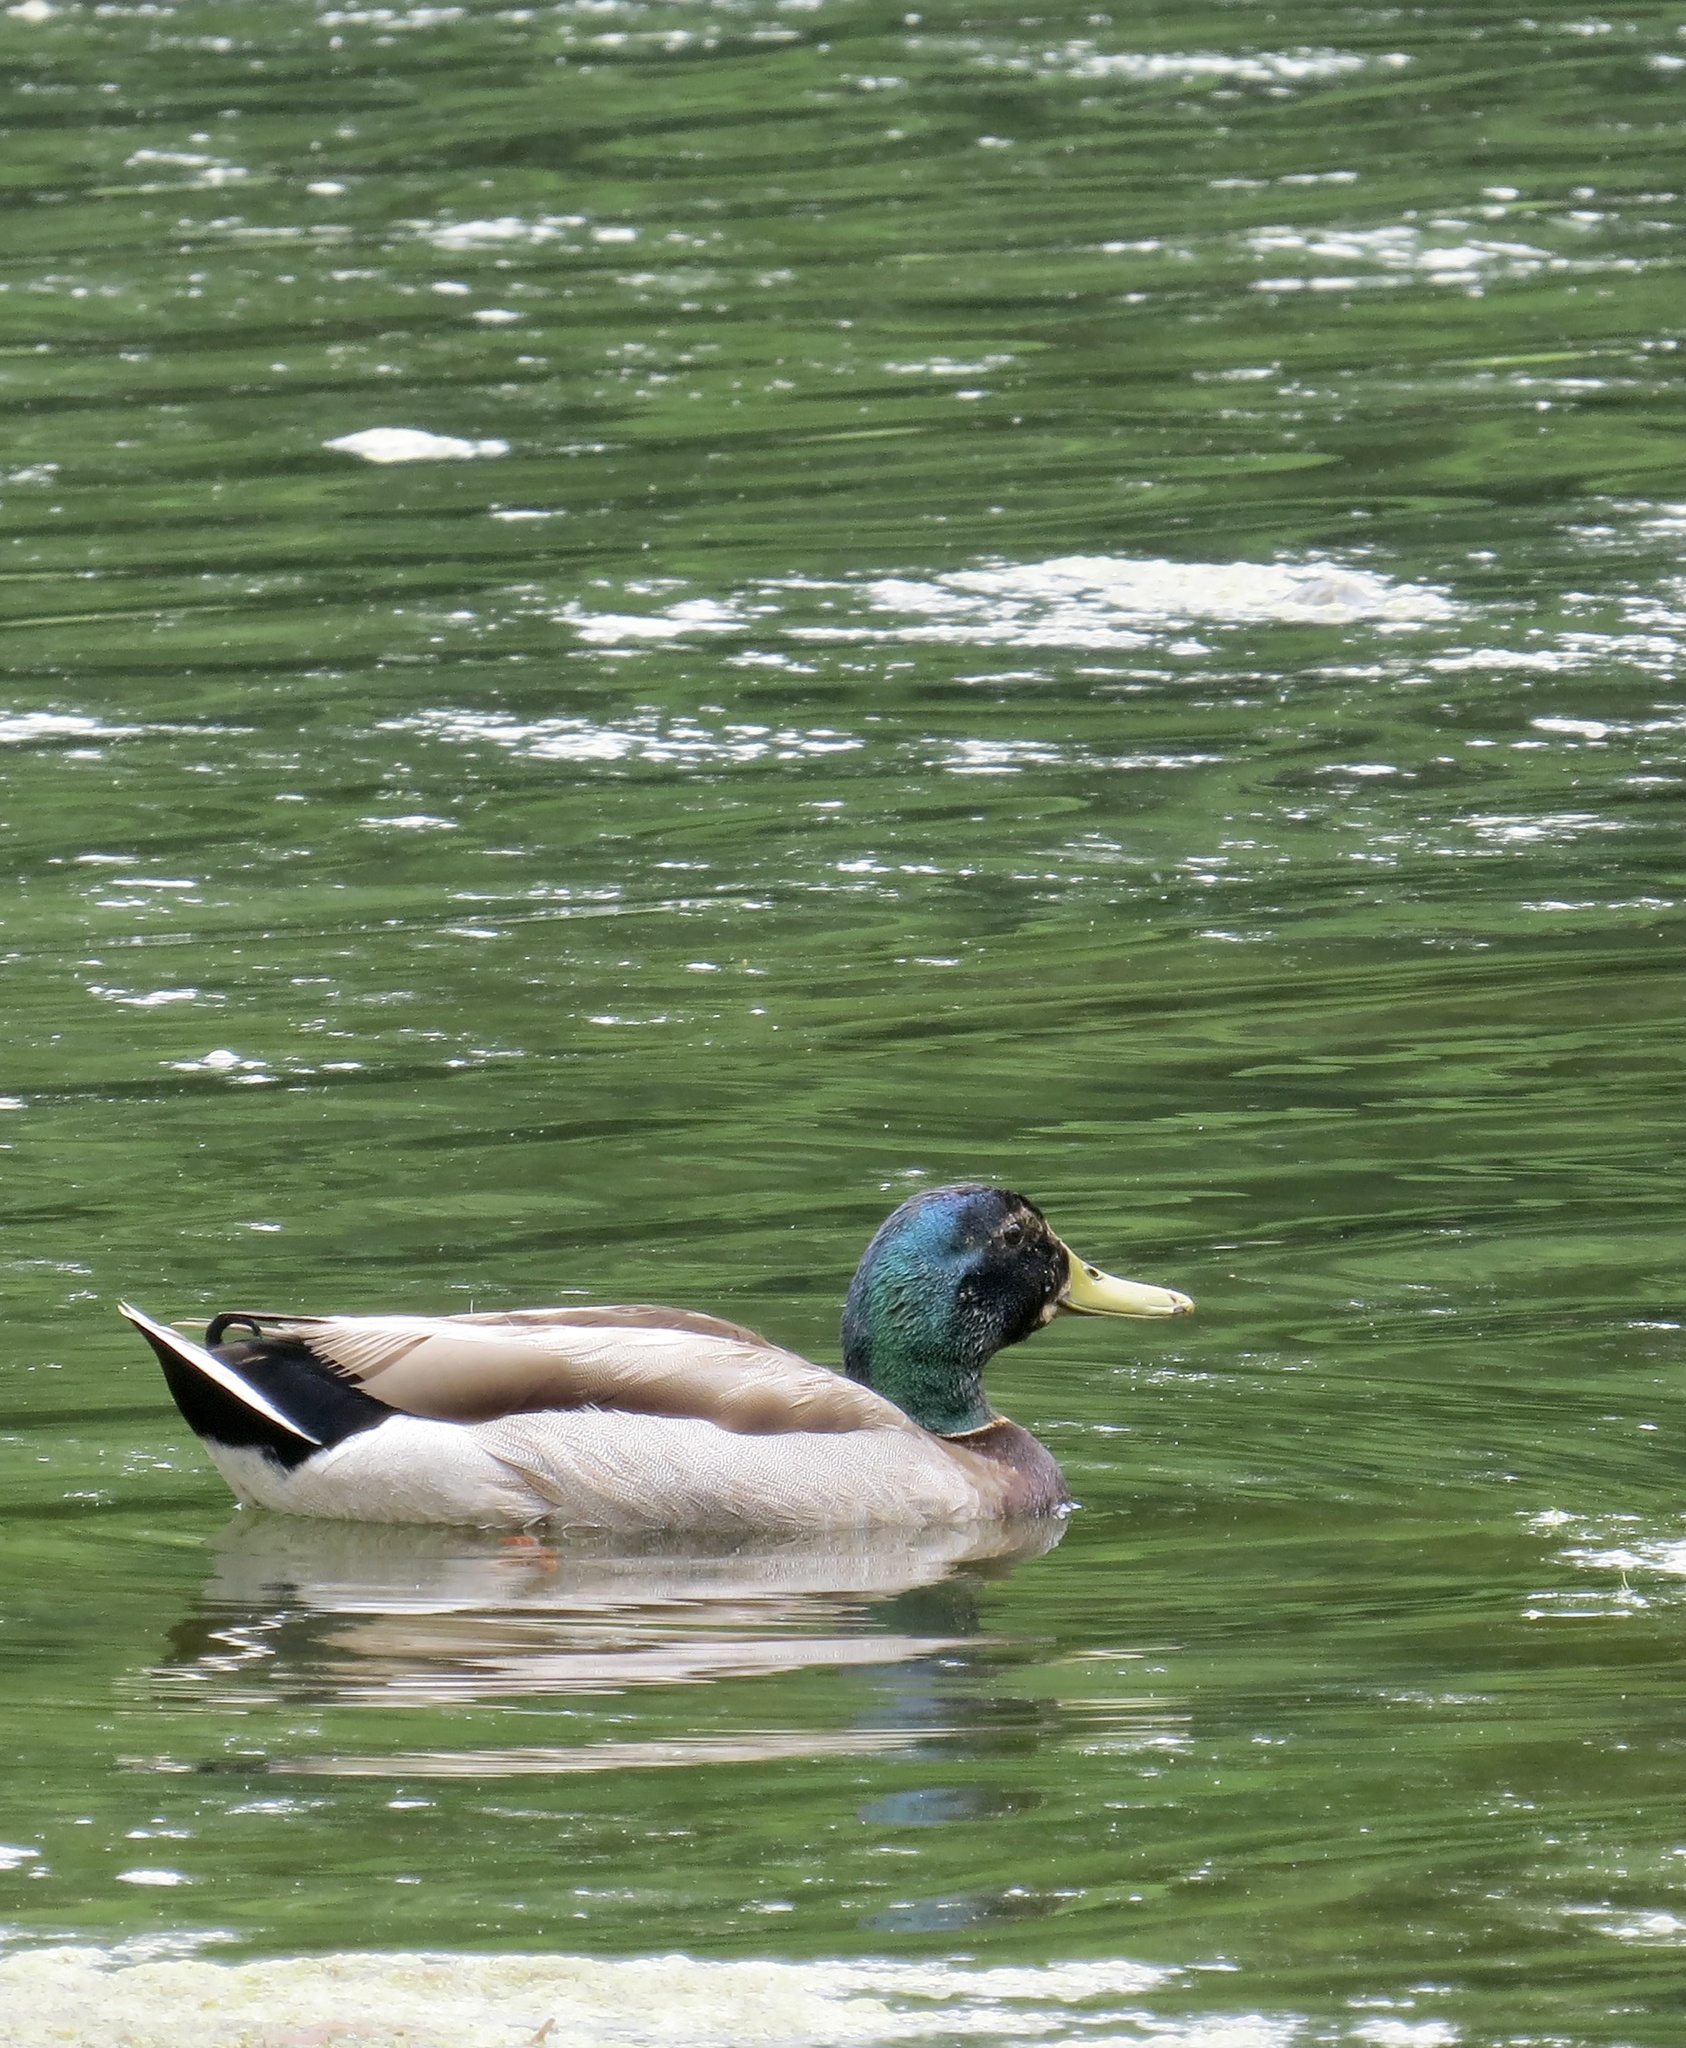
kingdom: Animalia
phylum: Chordata
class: Aves
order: Anseriformes
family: Anatidae
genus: Anas
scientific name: Anas platyrhynchos
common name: Mallard
